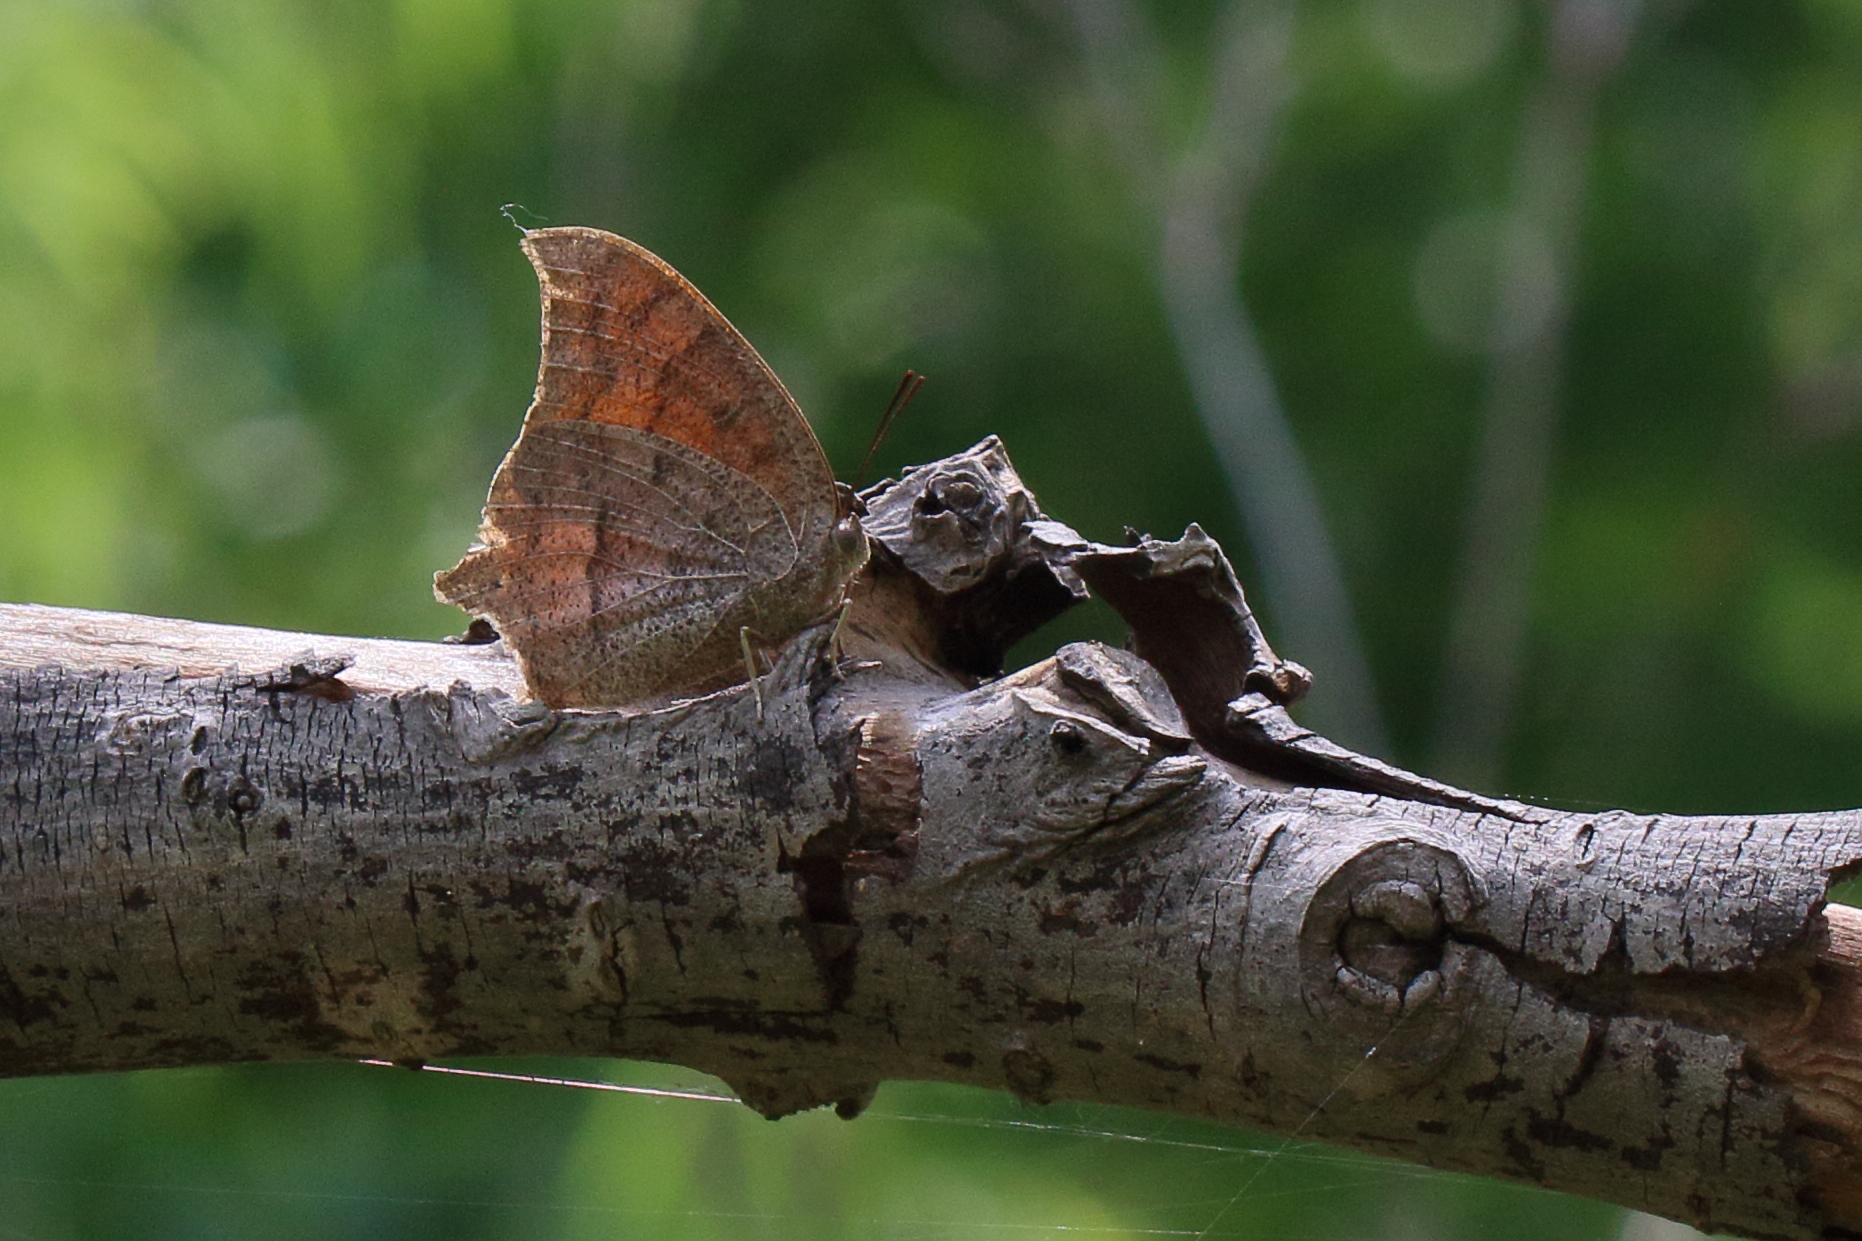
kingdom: Animalia
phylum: Arthropoda
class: Insecta
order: Lepidoptera
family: Nymphalidae
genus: Anaea
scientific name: Anaea andria
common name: Goatweed leafwing
